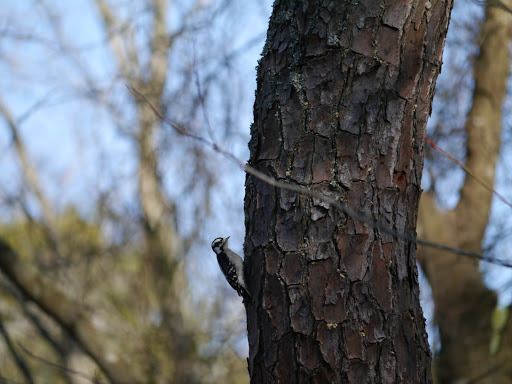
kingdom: Animalia
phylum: Chordata
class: Aves
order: Piciformes
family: Picidae
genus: Dryobates
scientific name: Dryobates pubescens
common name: Downy woodpecker
